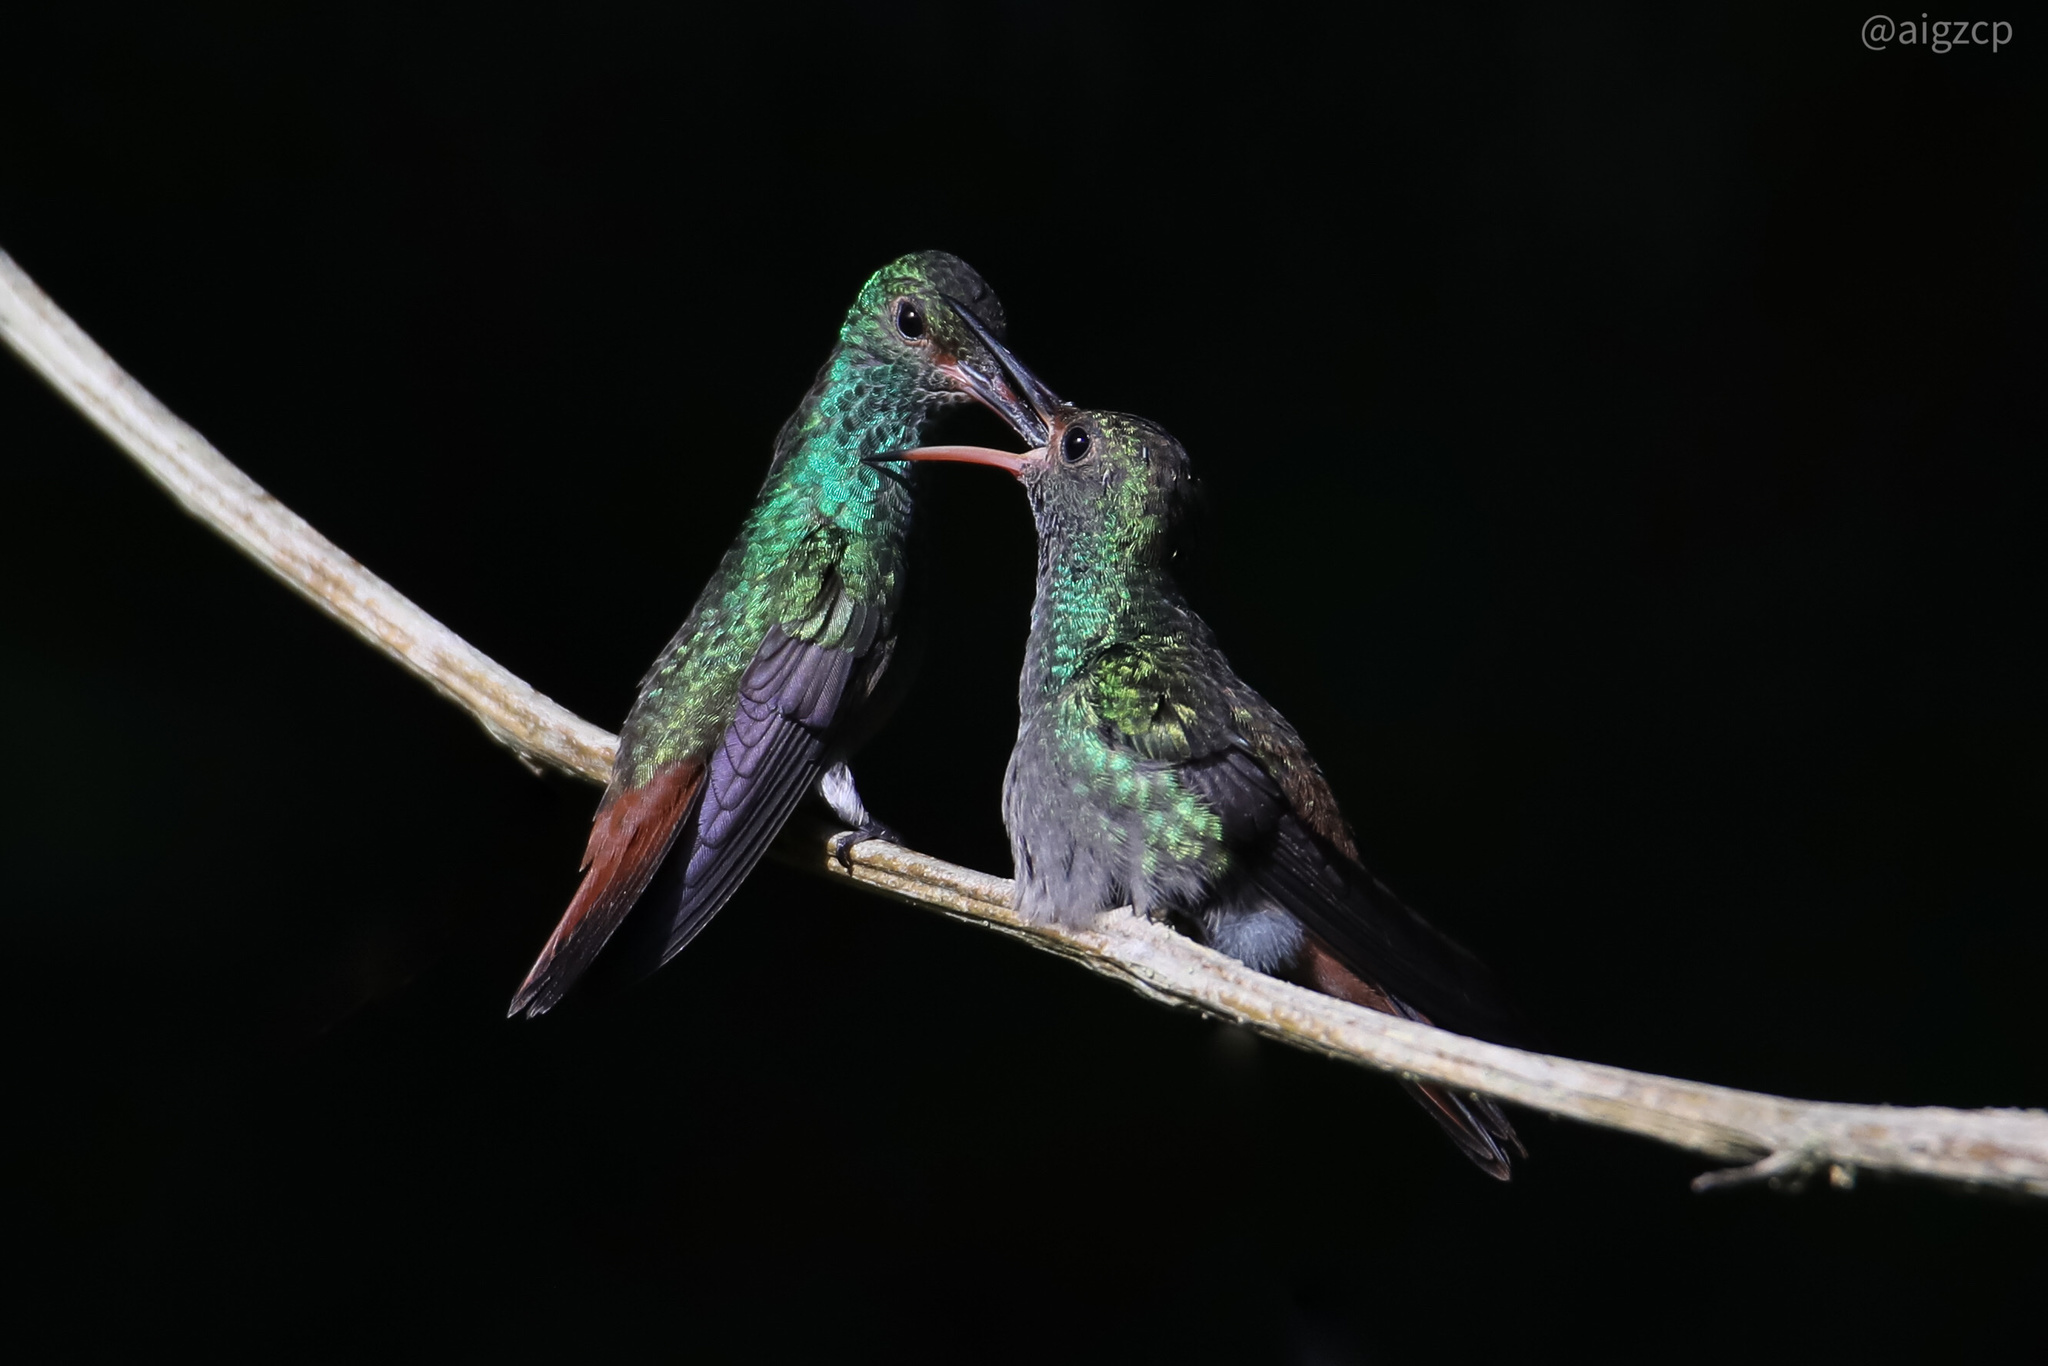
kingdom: Animalia
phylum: Chordata
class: Aves
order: Apodiformes
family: Trochilidae
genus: Amazilia
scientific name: Amazilia tzacatl
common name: Rufous-tailed hummingbird
